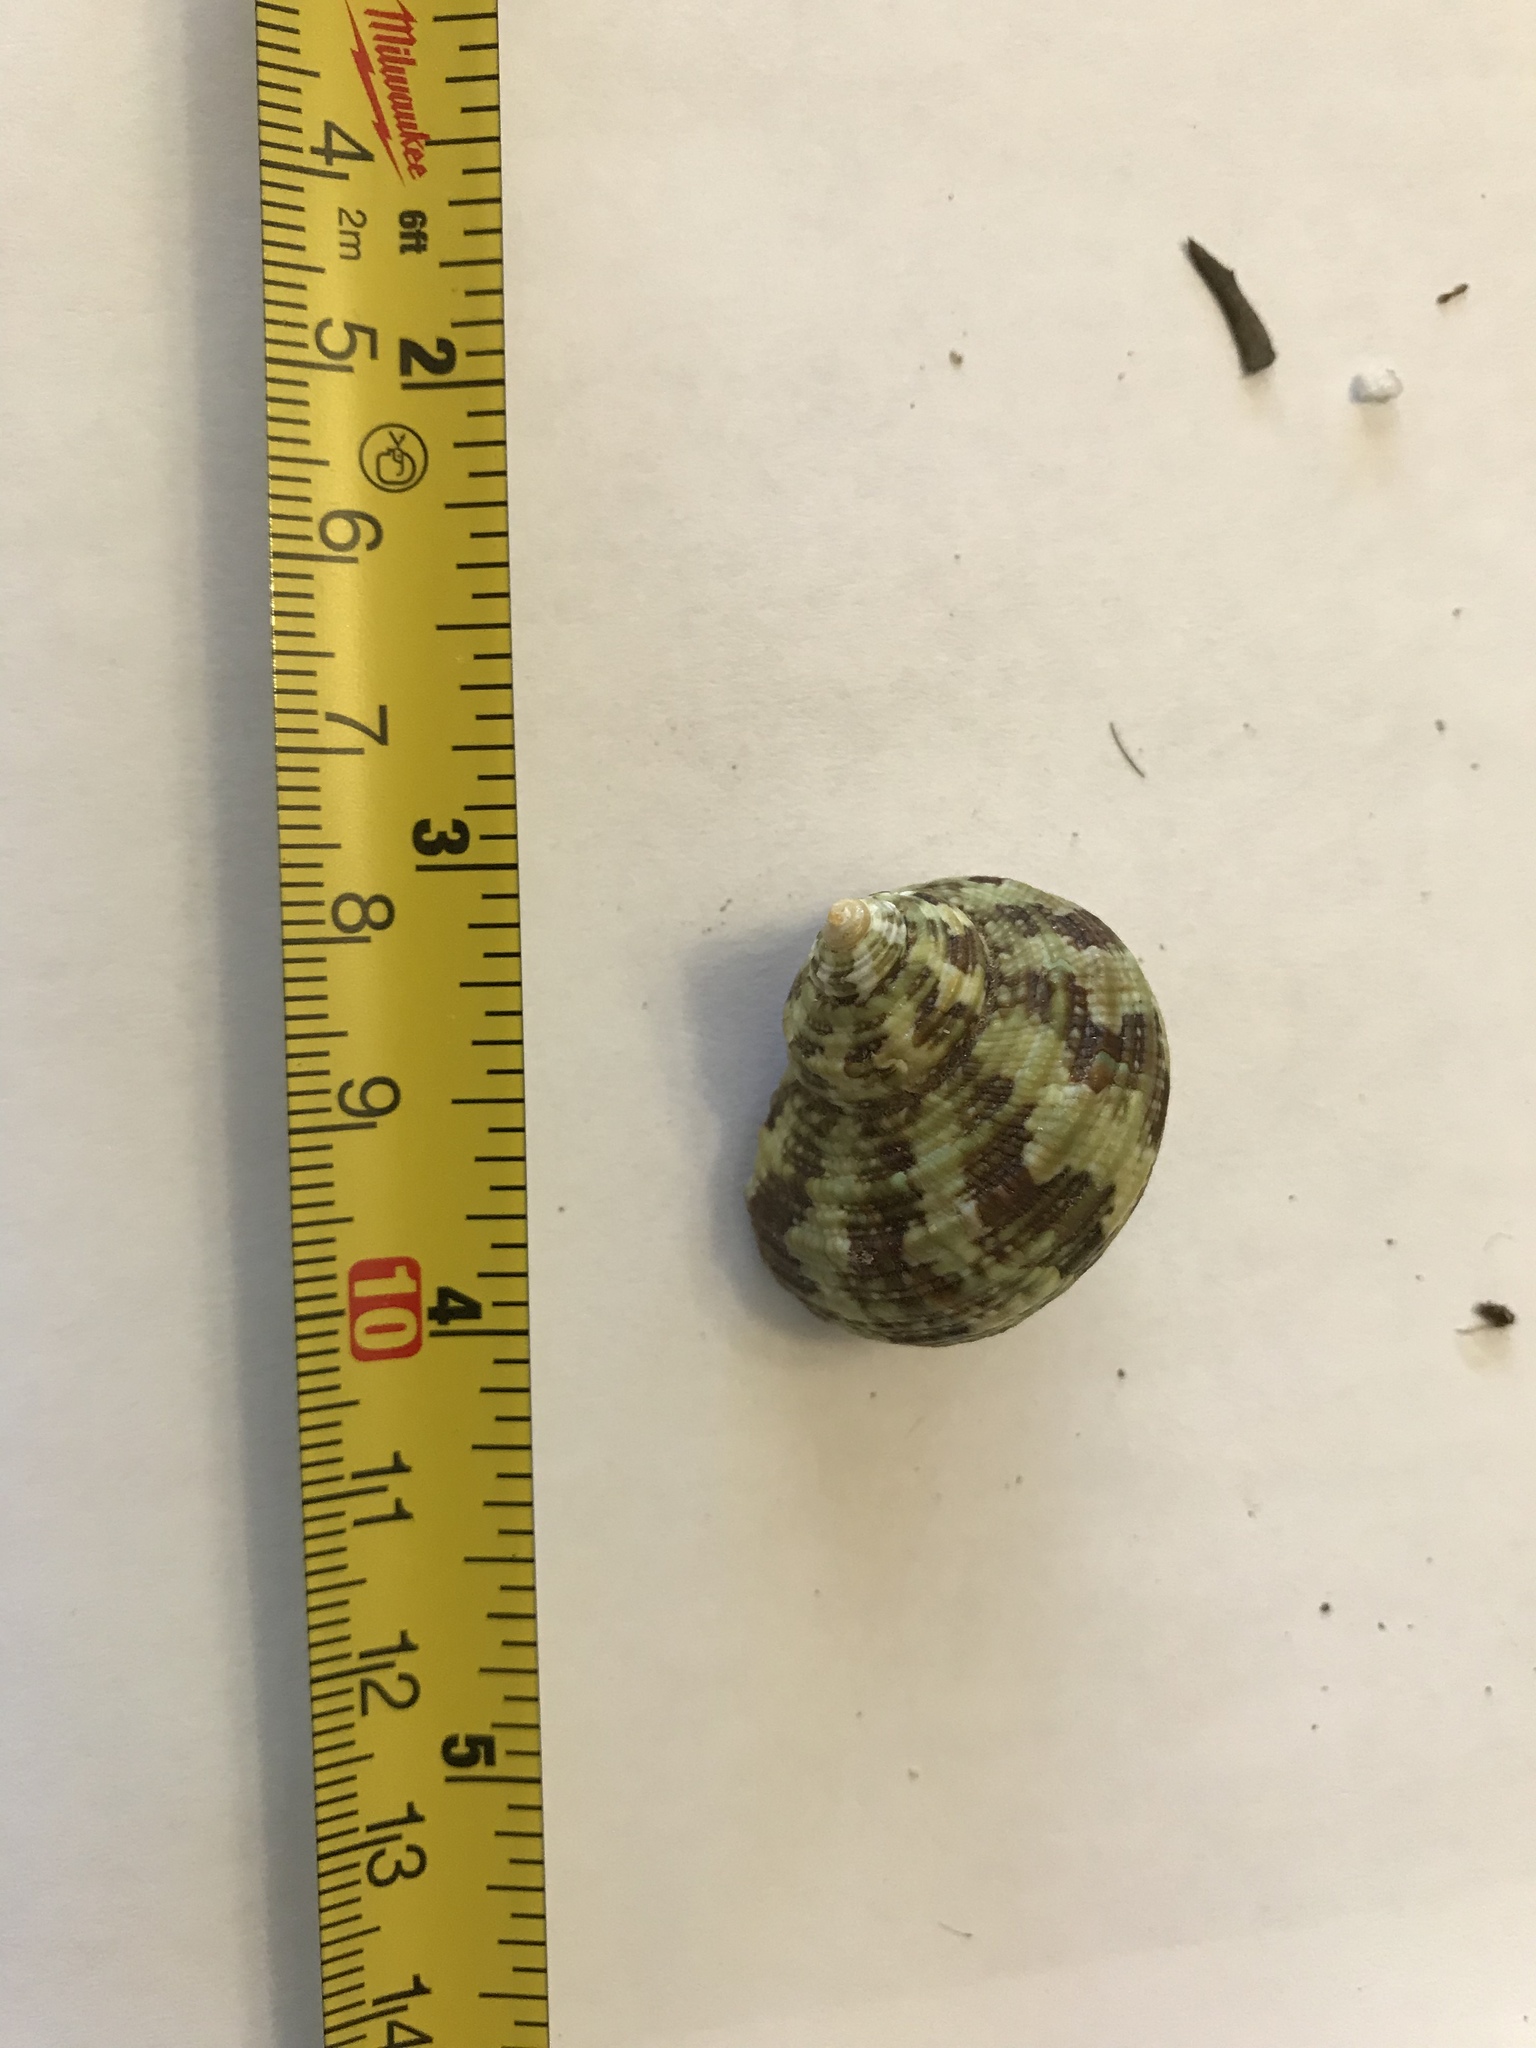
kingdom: Animalia
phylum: Mollusca
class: Gastropoda
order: Trochida
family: Turbinidae
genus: Turbo
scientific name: Turbo bruneus
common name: Brown pacific turban
